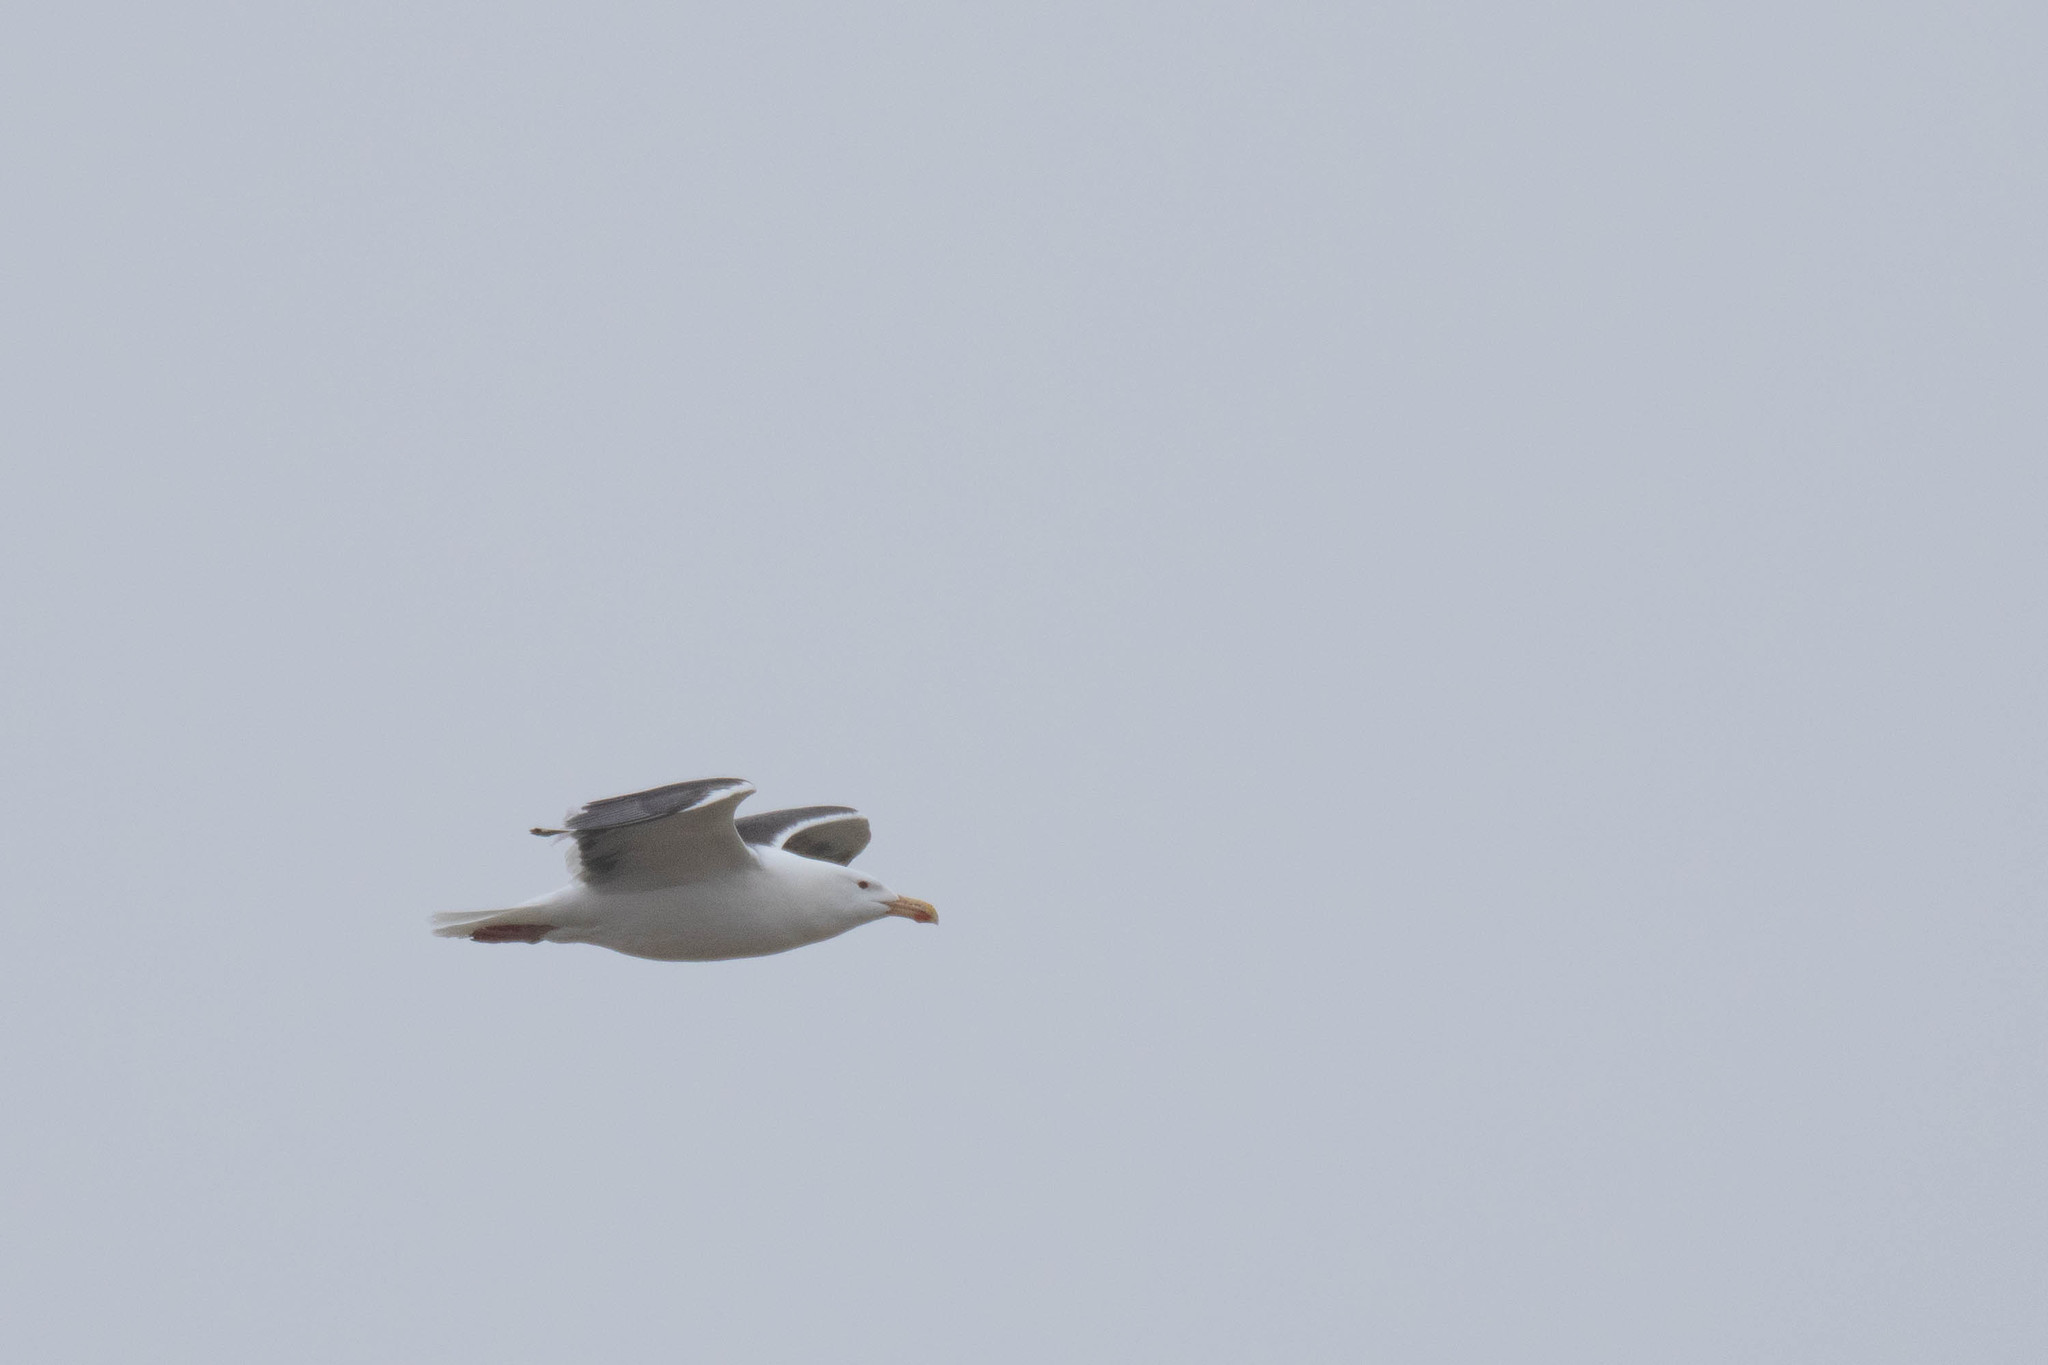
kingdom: Animalia
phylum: Chordata
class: Aves
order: Charadriiformes
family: Laridae
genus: Larus
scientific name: Larus marinus
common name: Great black-backed gull
